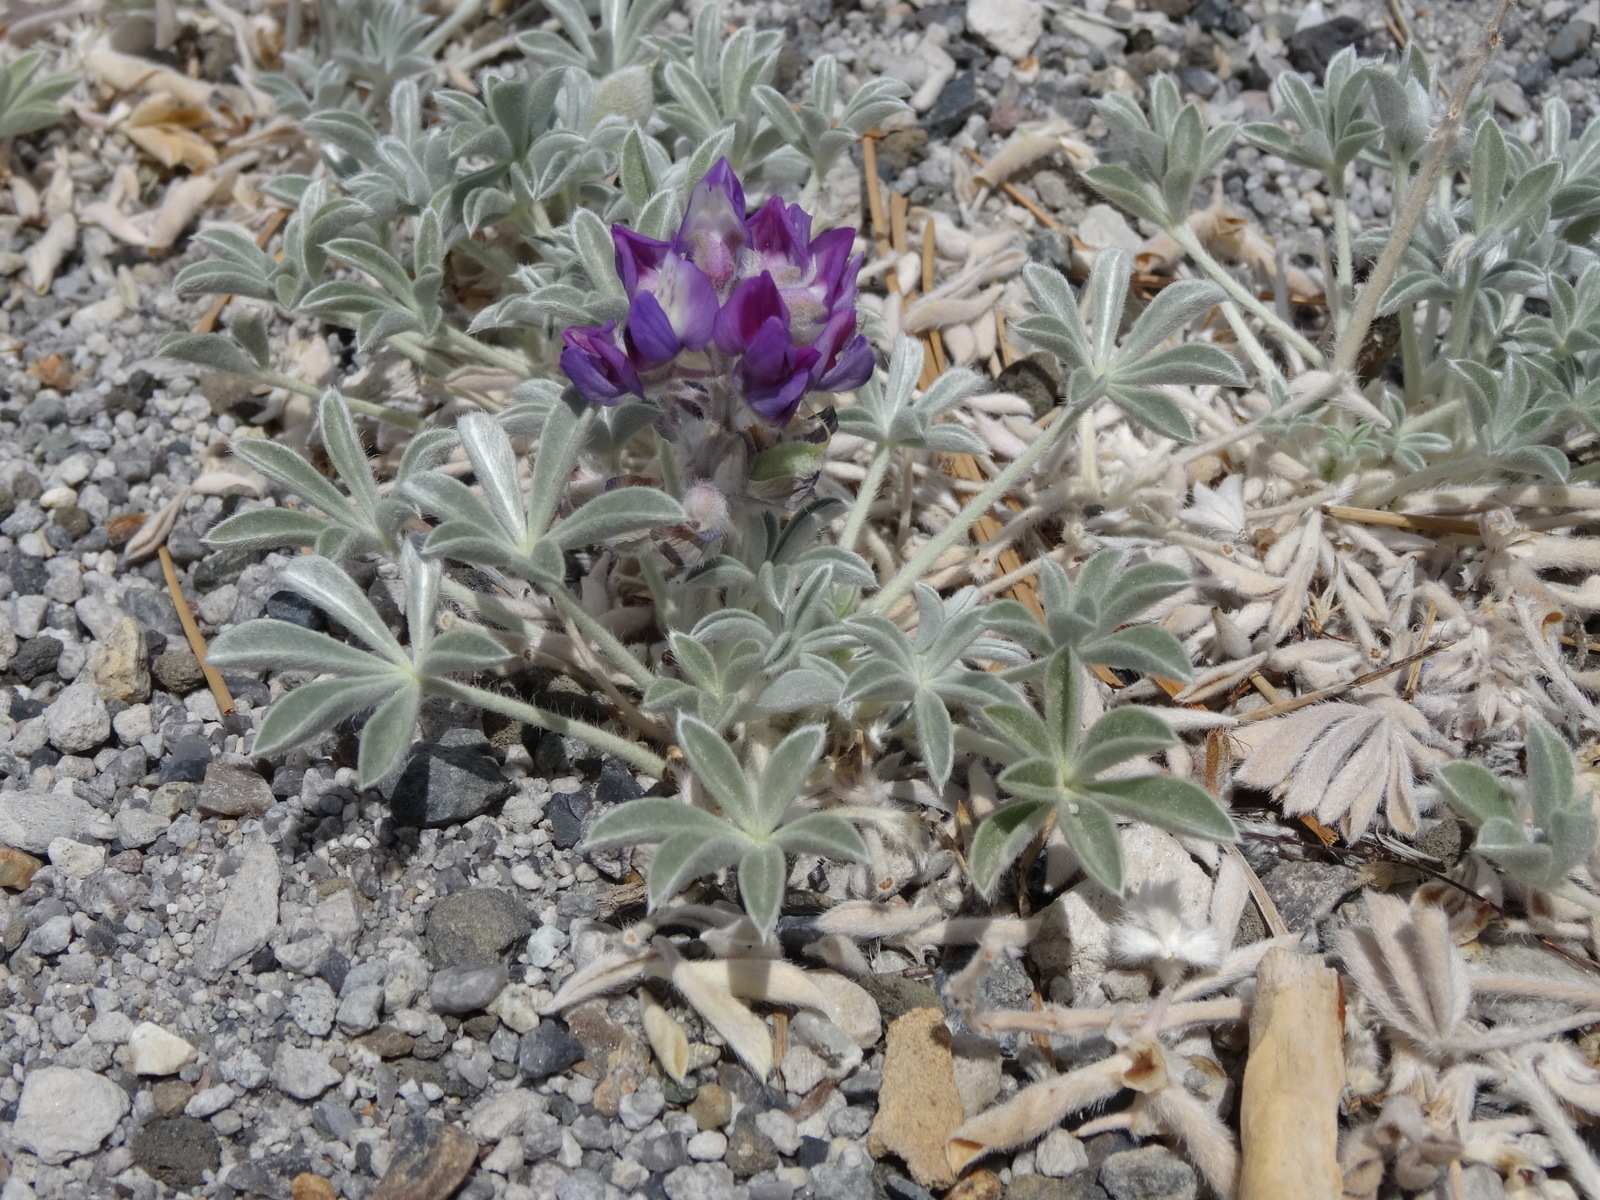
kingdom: Plantae
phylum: Tracheophyta
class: Magnoliopsida
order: Fabales
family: Fabaceae
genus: Lupinus
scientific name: Lupinus duranii
